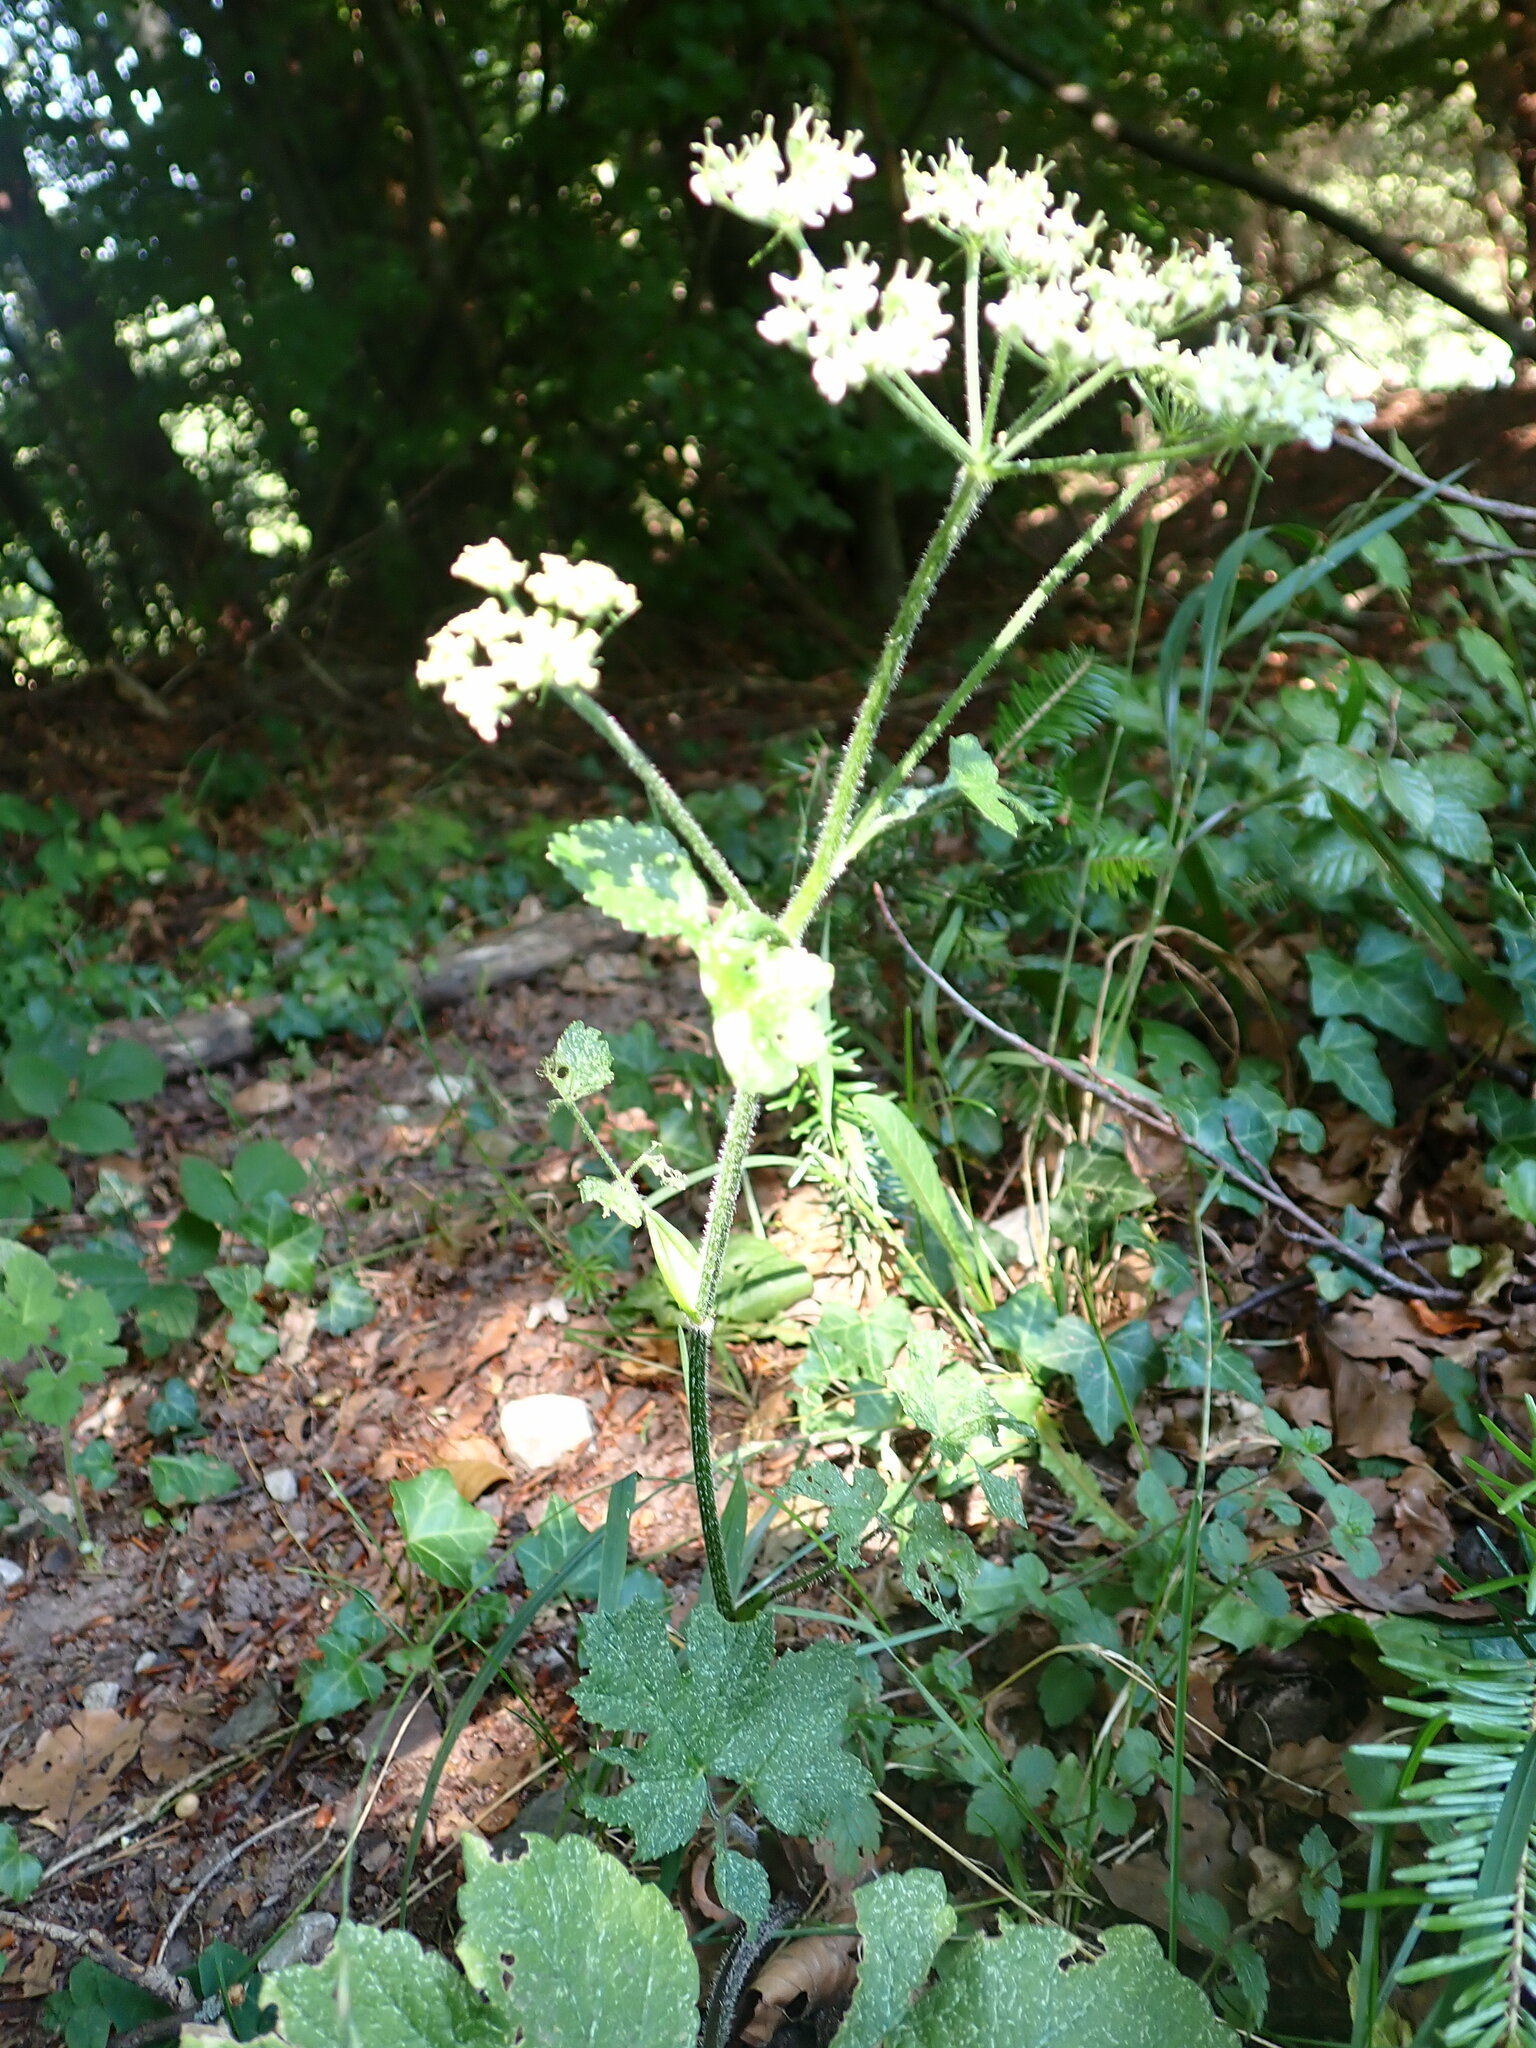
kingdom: Plantae
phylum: Tracheophyta
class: Magnoliopsida
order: Apiales
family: Apiaceae
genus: Heracleum
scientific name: Heracleum sphondylium
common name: Hogweed
